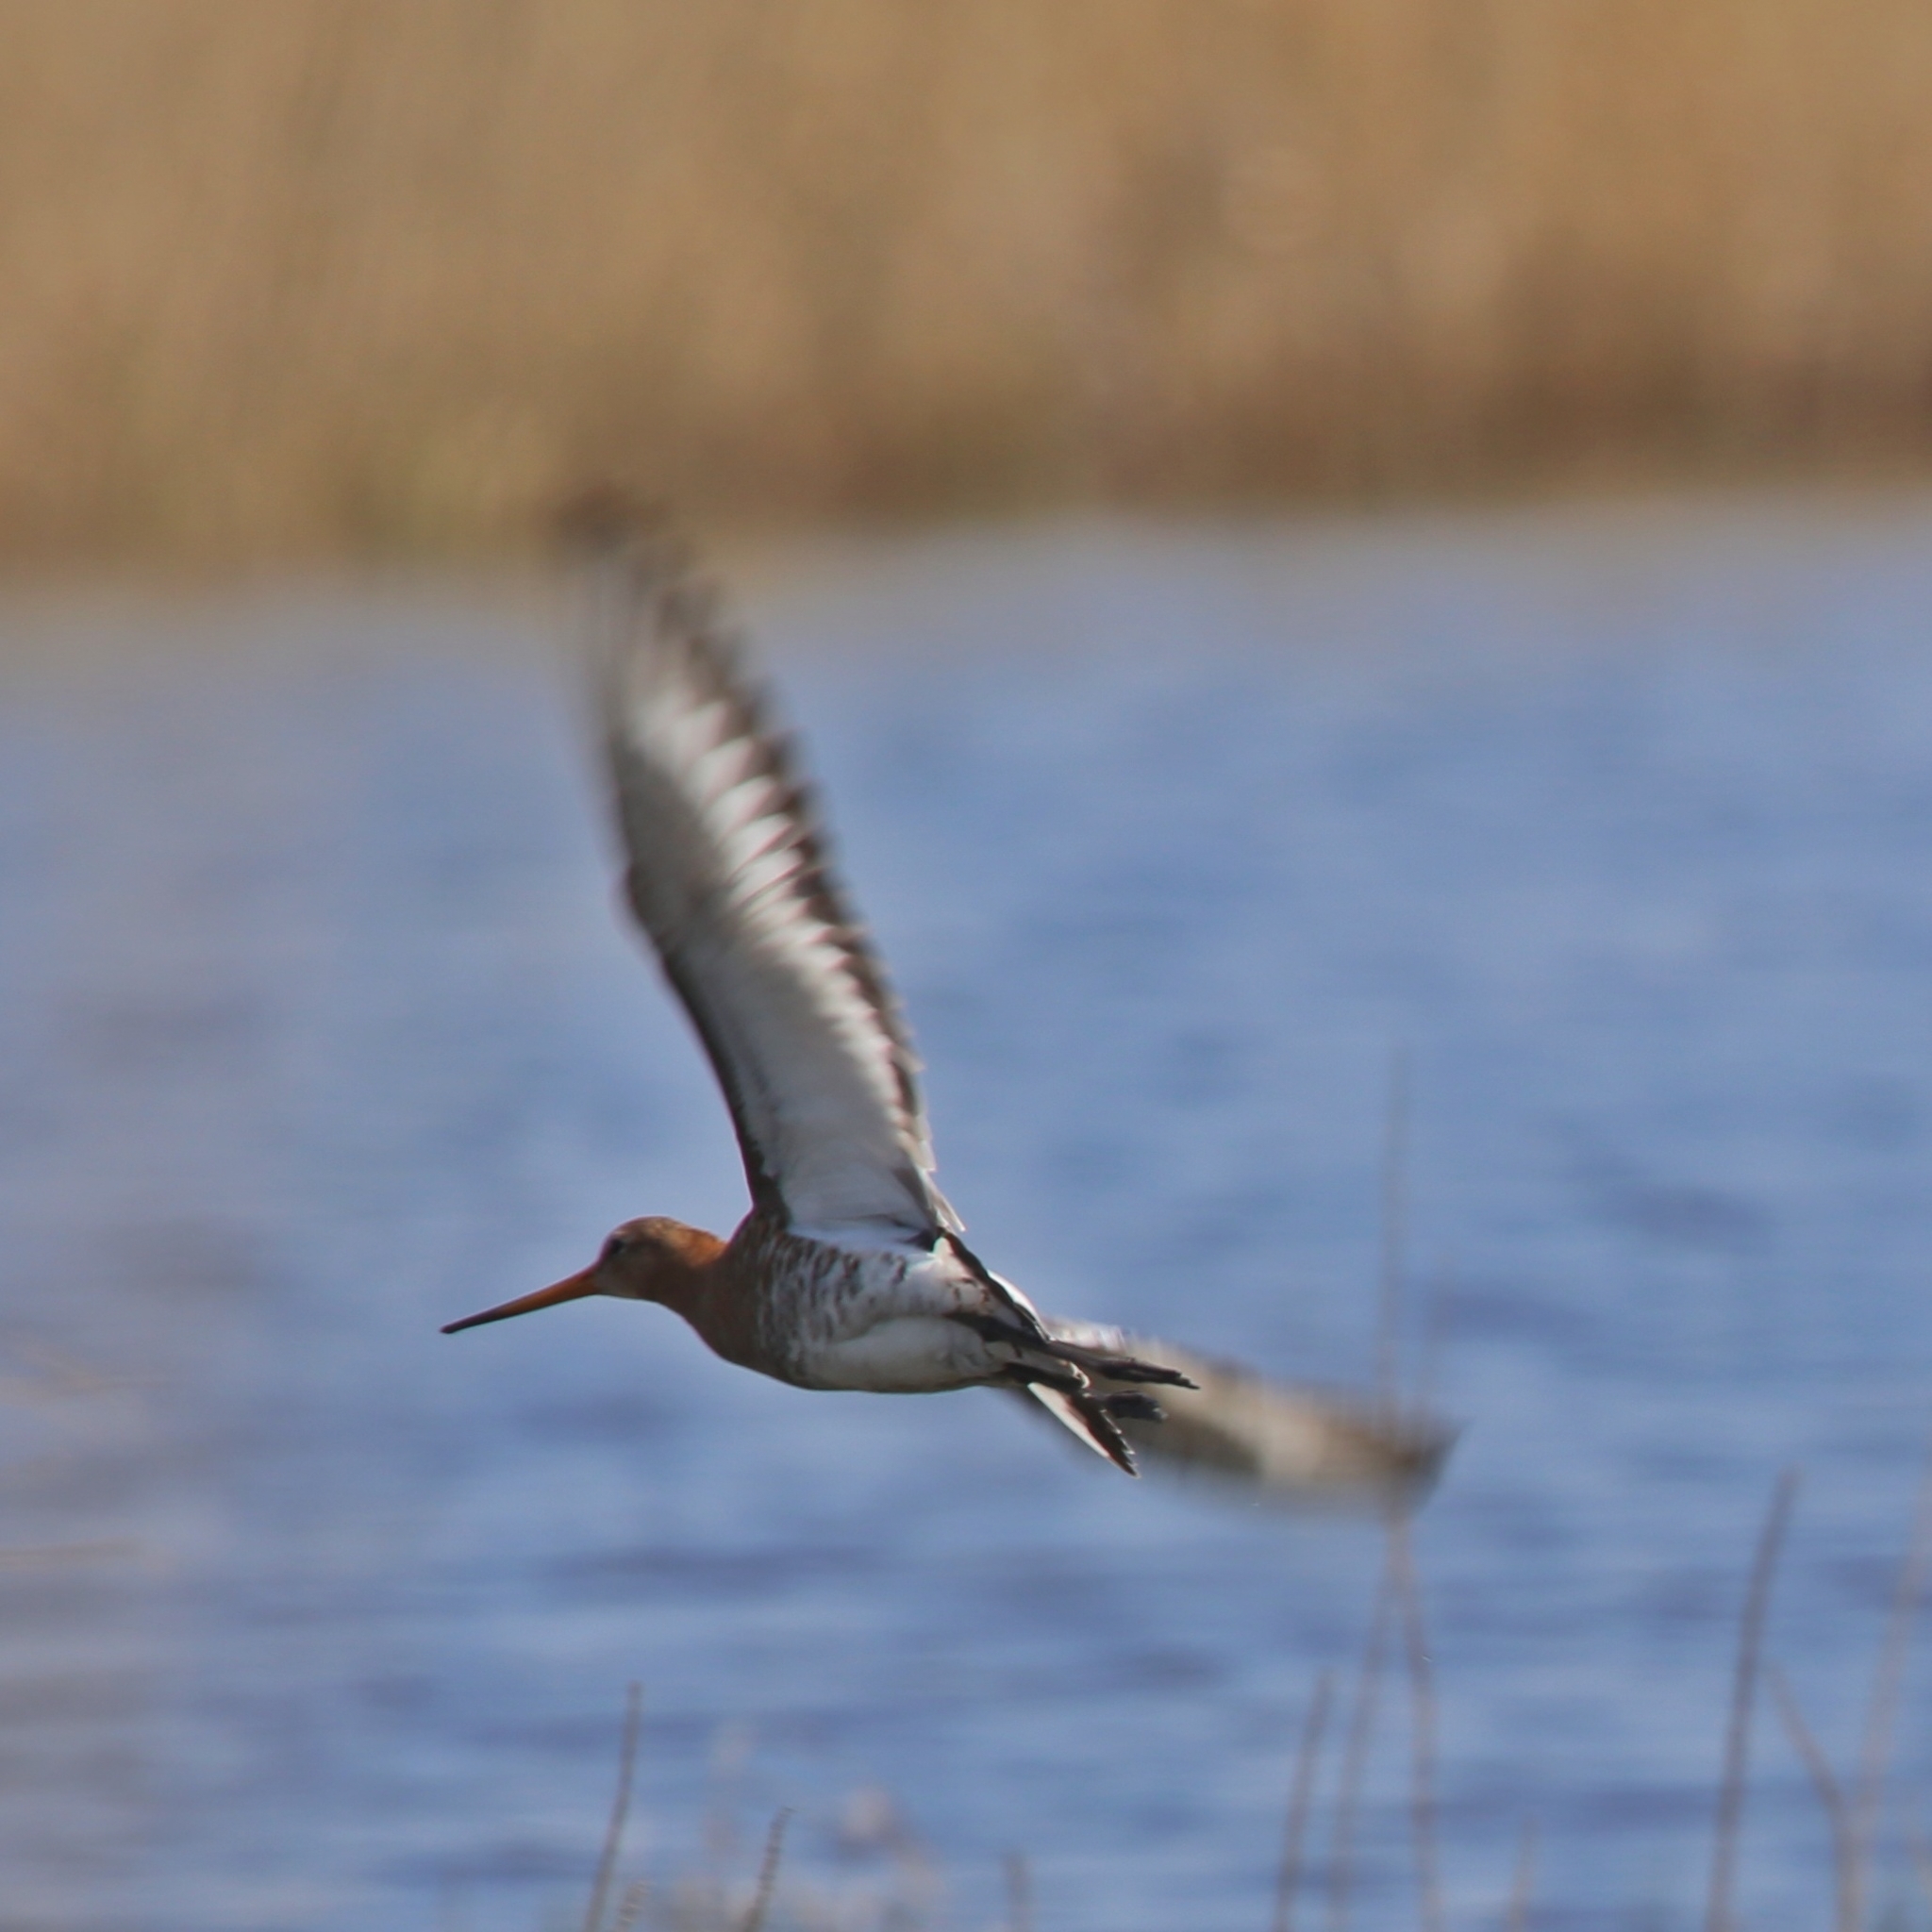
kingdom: Animalia
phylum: Chordata
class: Aves
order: Charadriiformes
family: Scolopacidae
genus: Limosa
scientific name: Limosa limosa
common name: Black-tailed godwit
